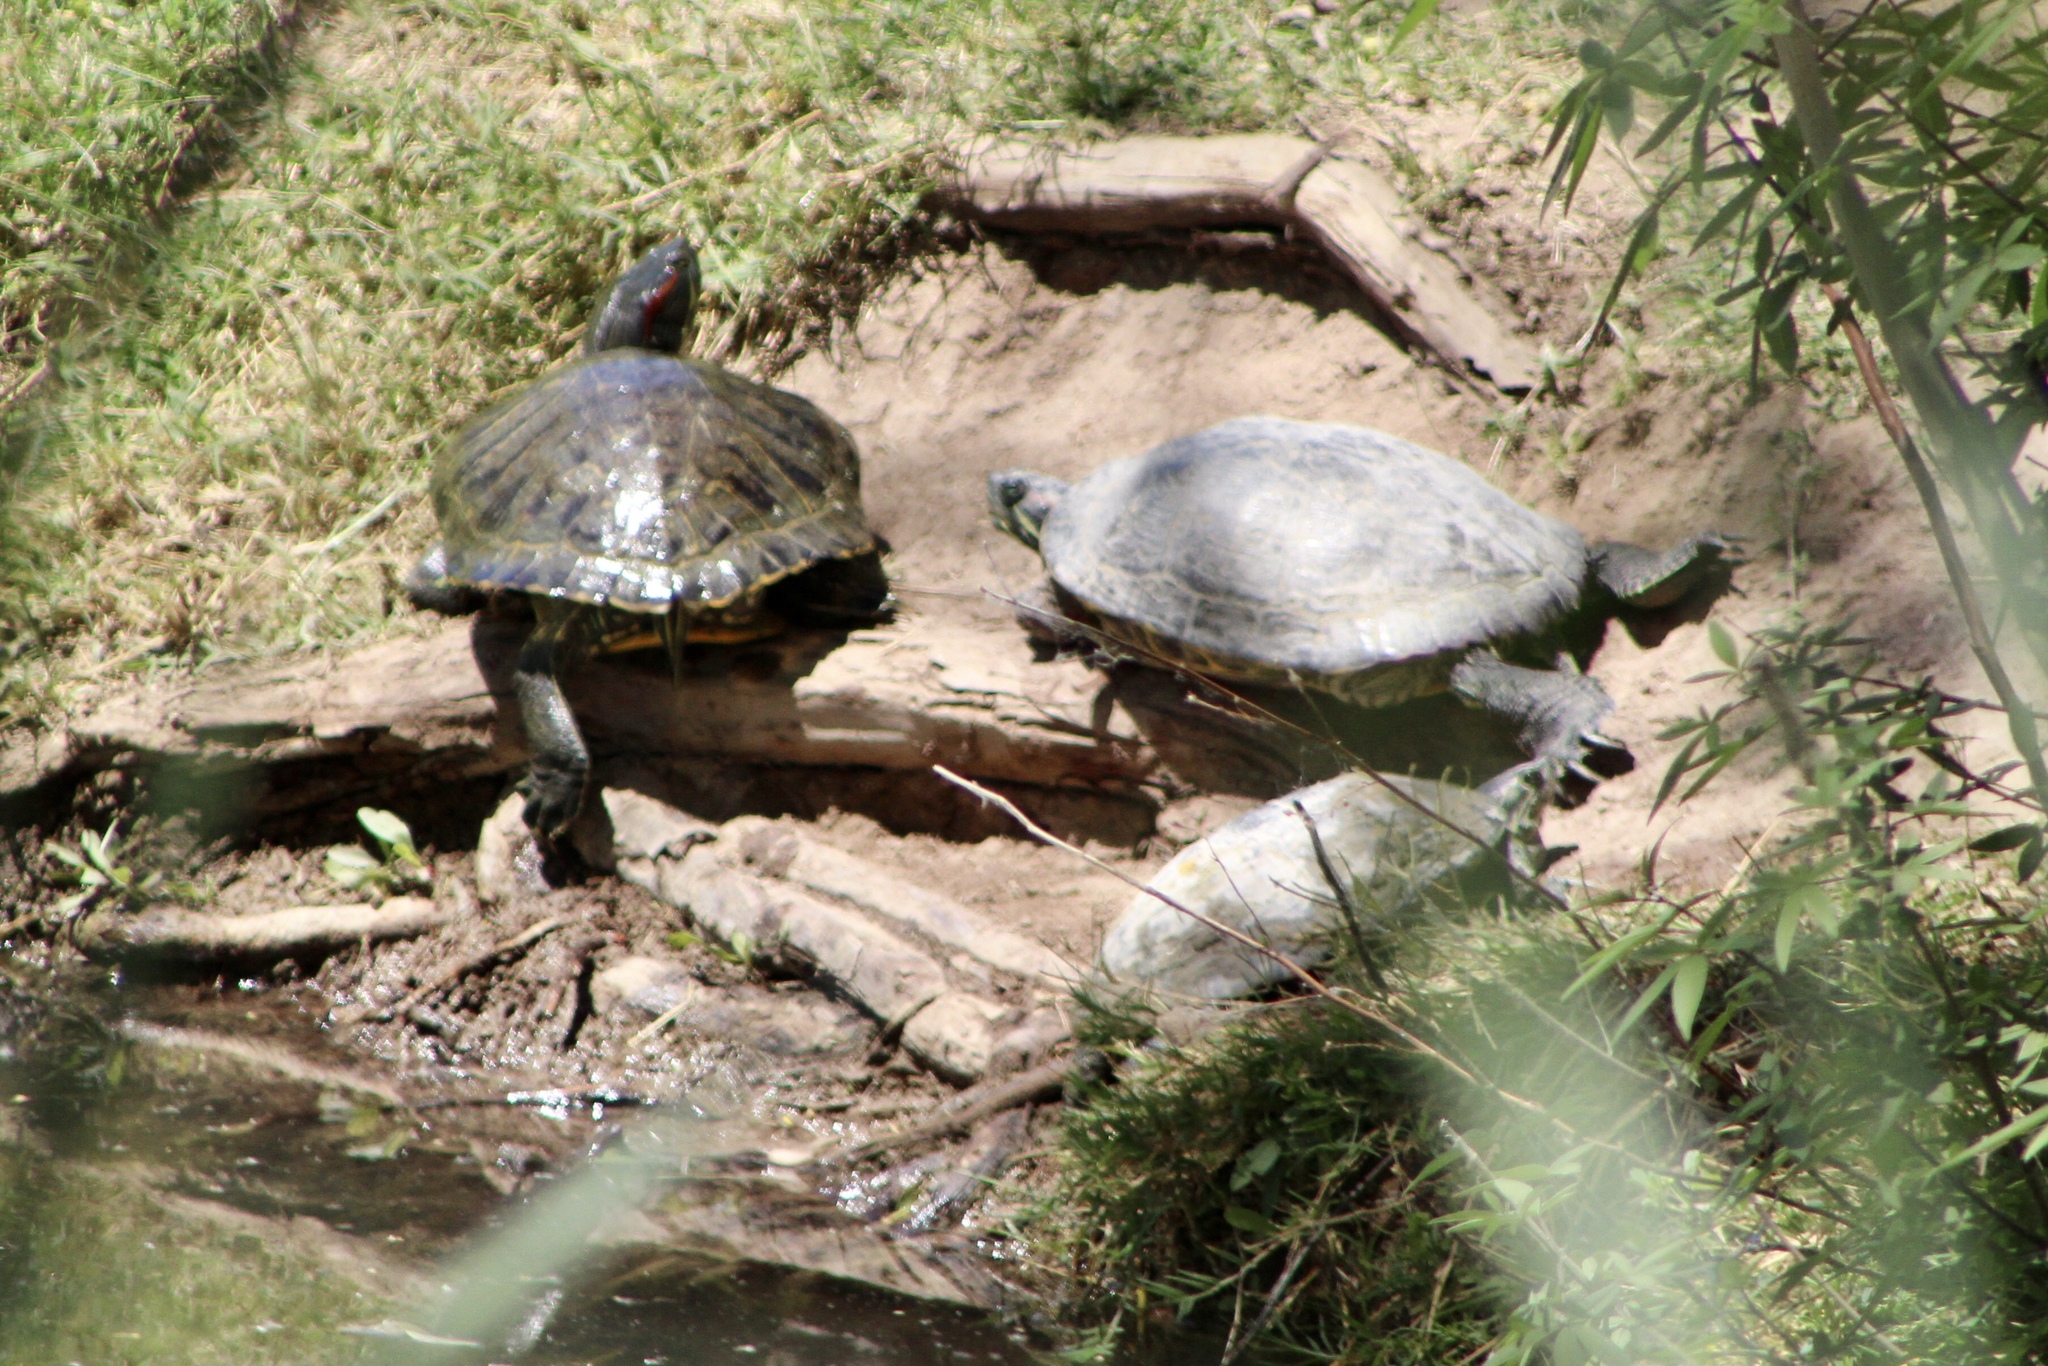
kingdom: Animalia
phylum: Chordata
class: Testudines
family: Emydidae
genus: Trachemys
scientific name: Trachemys scripta
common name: Slider
